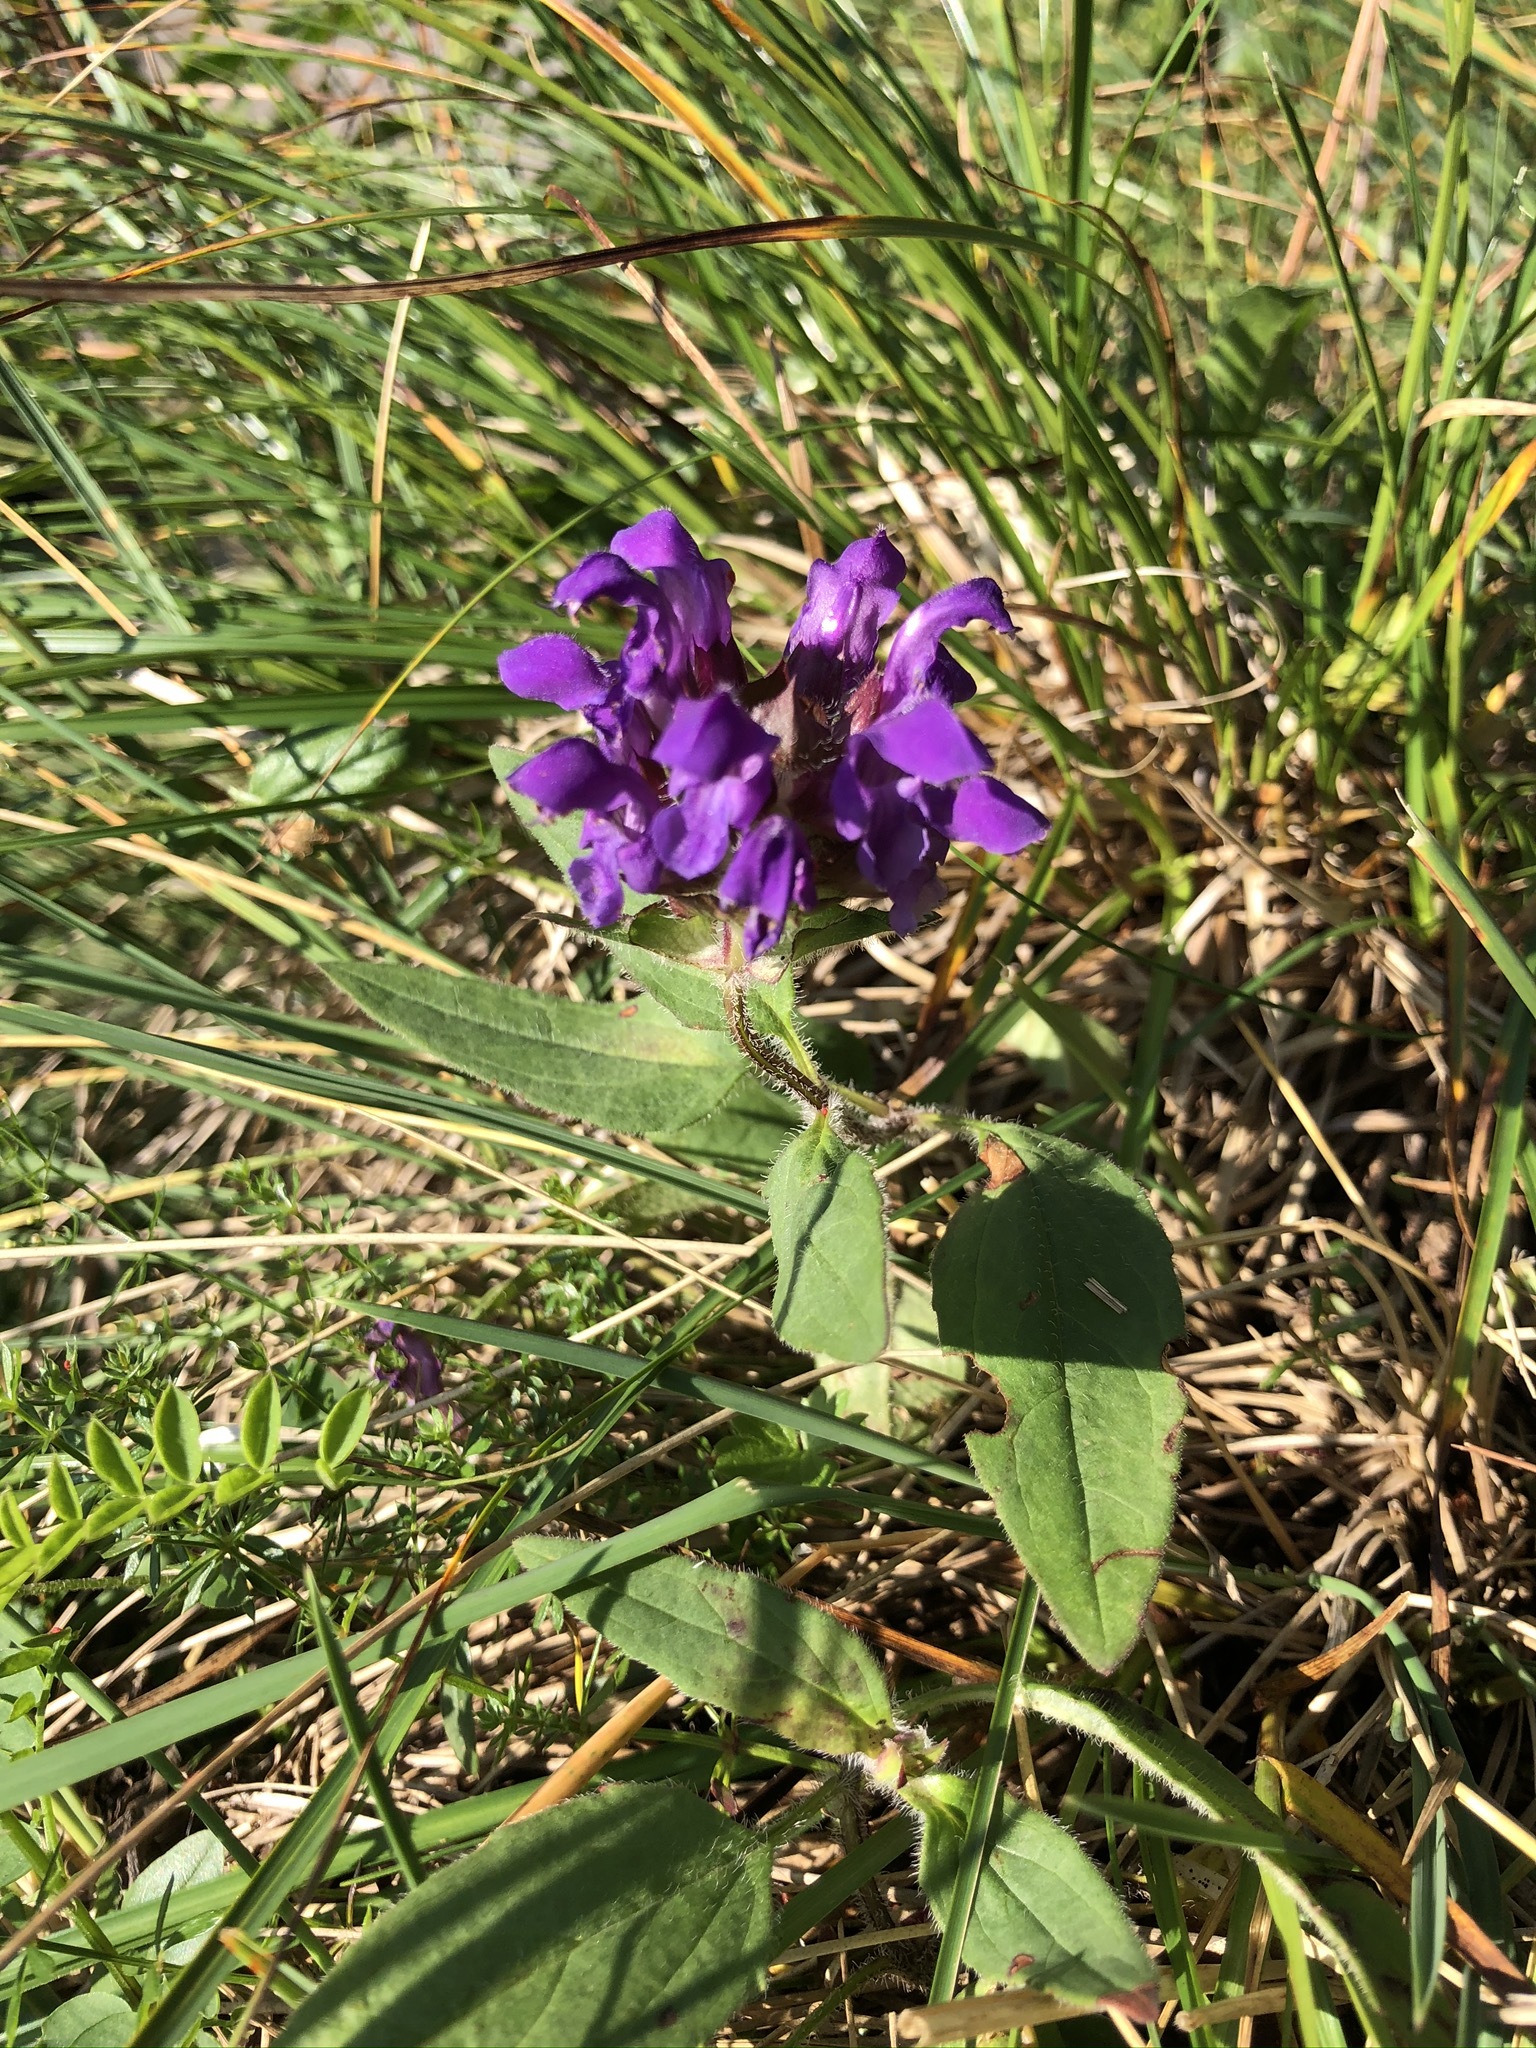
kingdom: Plantae
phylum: Tracheophyta
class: Magnoliopsida
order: Lamiales
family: Lamiaceae
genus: Prunella
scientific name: Prunella grandiflora
